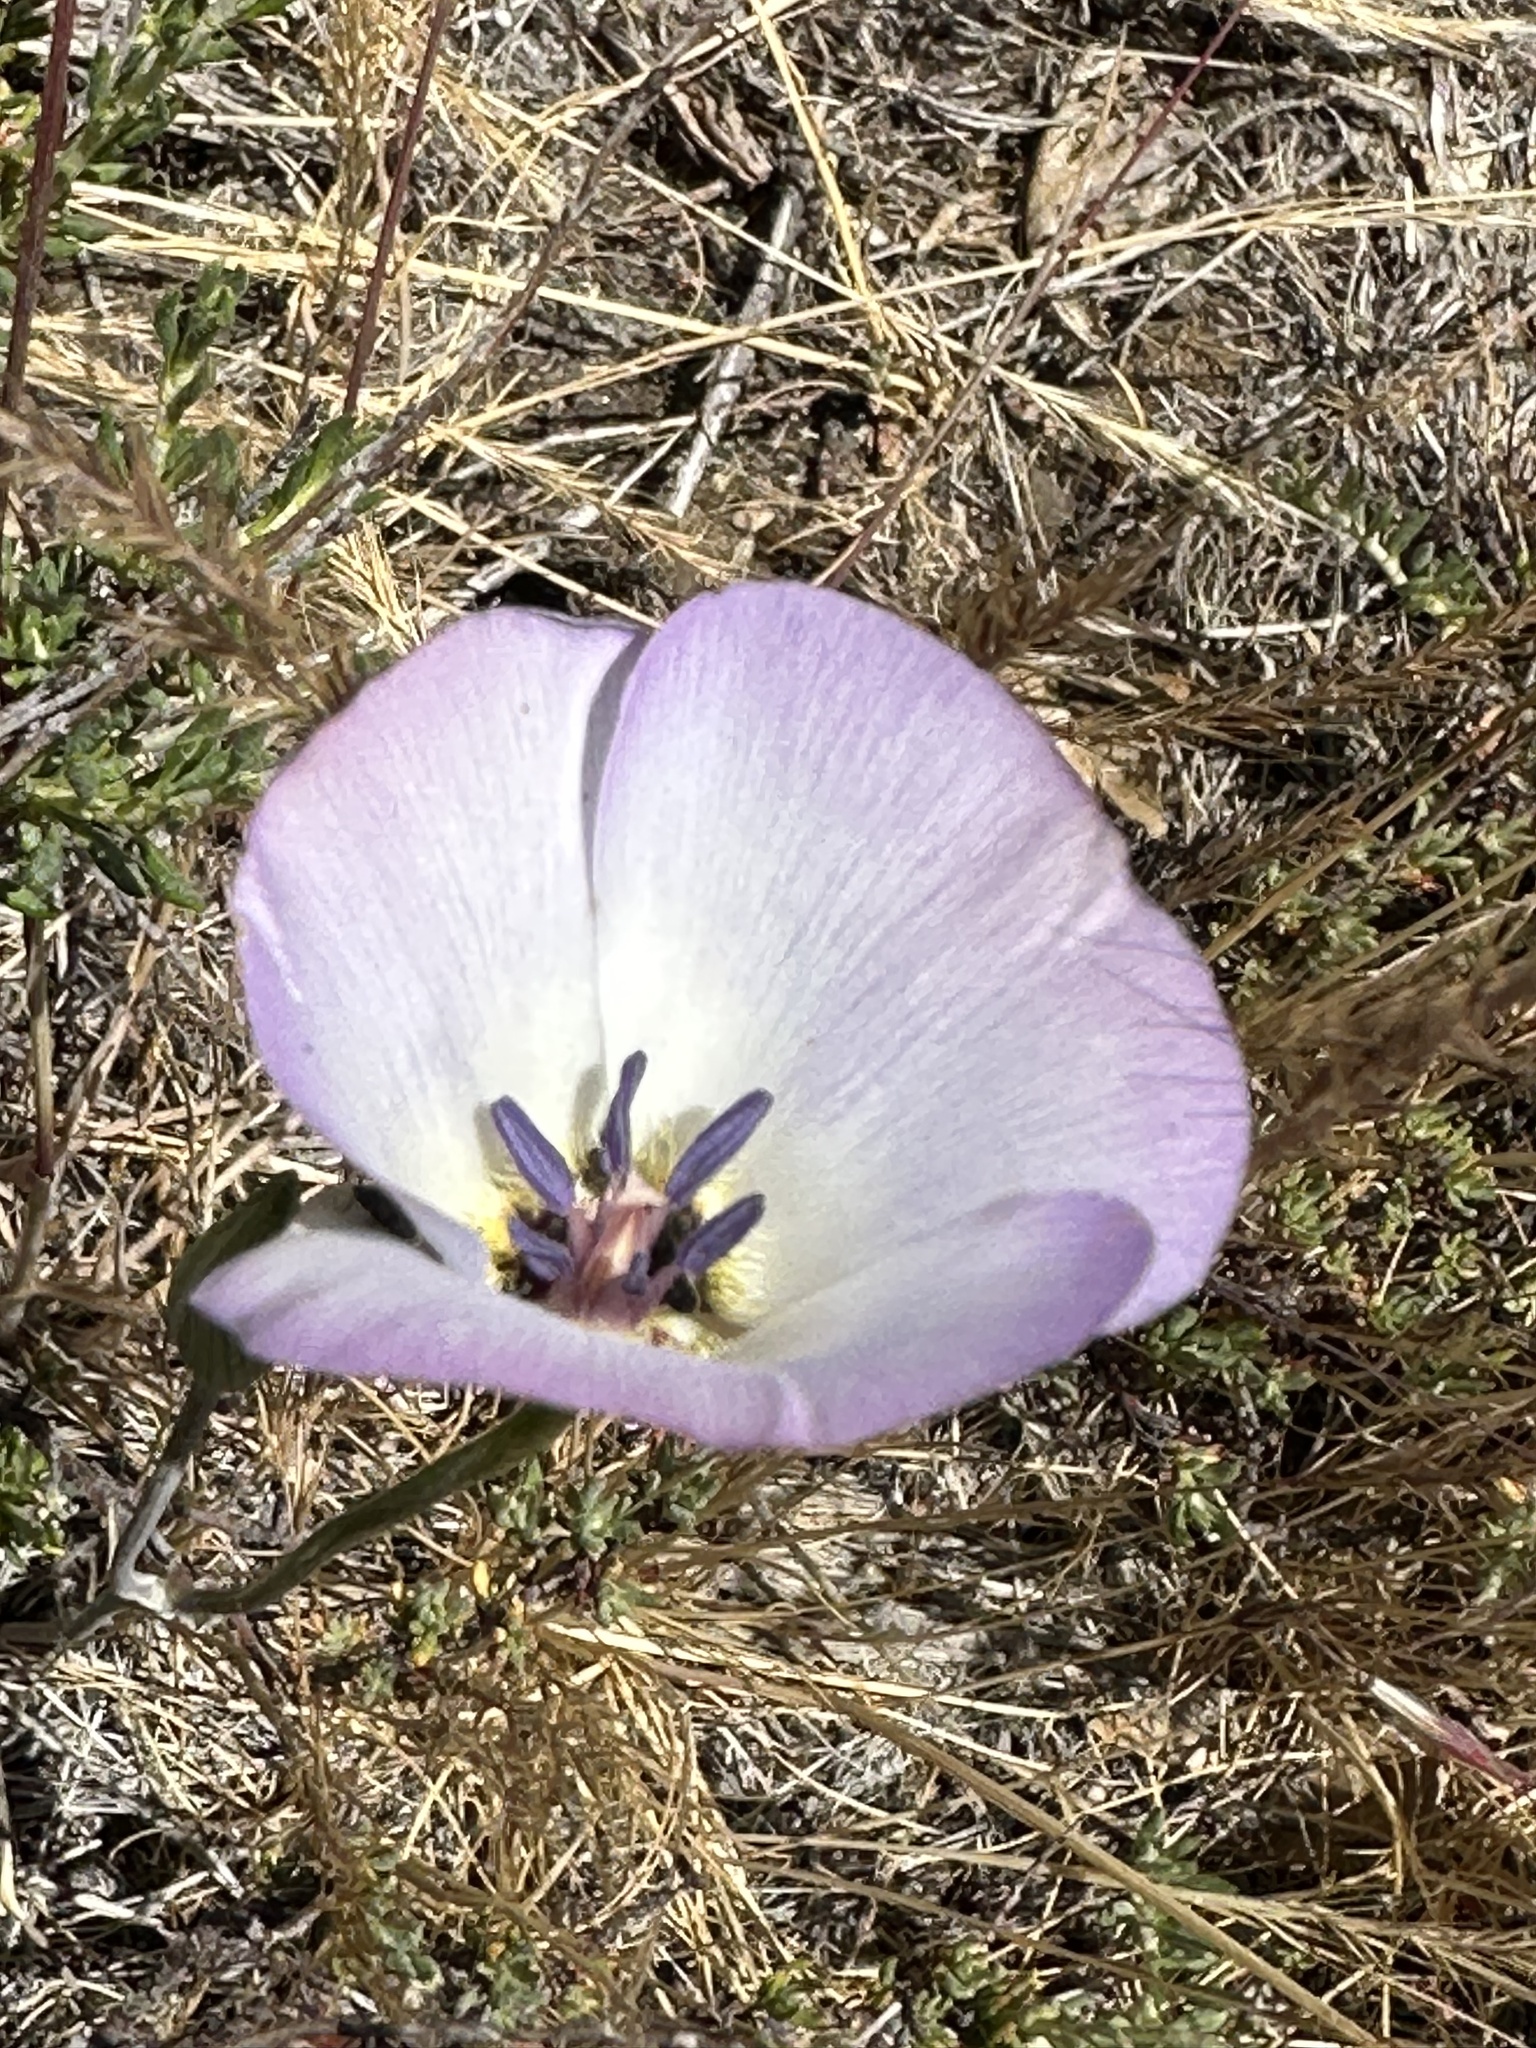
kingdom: Plantae
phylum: Tracheophyta
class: Liliopsida
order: Liliales
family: Liliaceae
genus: Calochortus
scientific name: Calochortus invenustus
